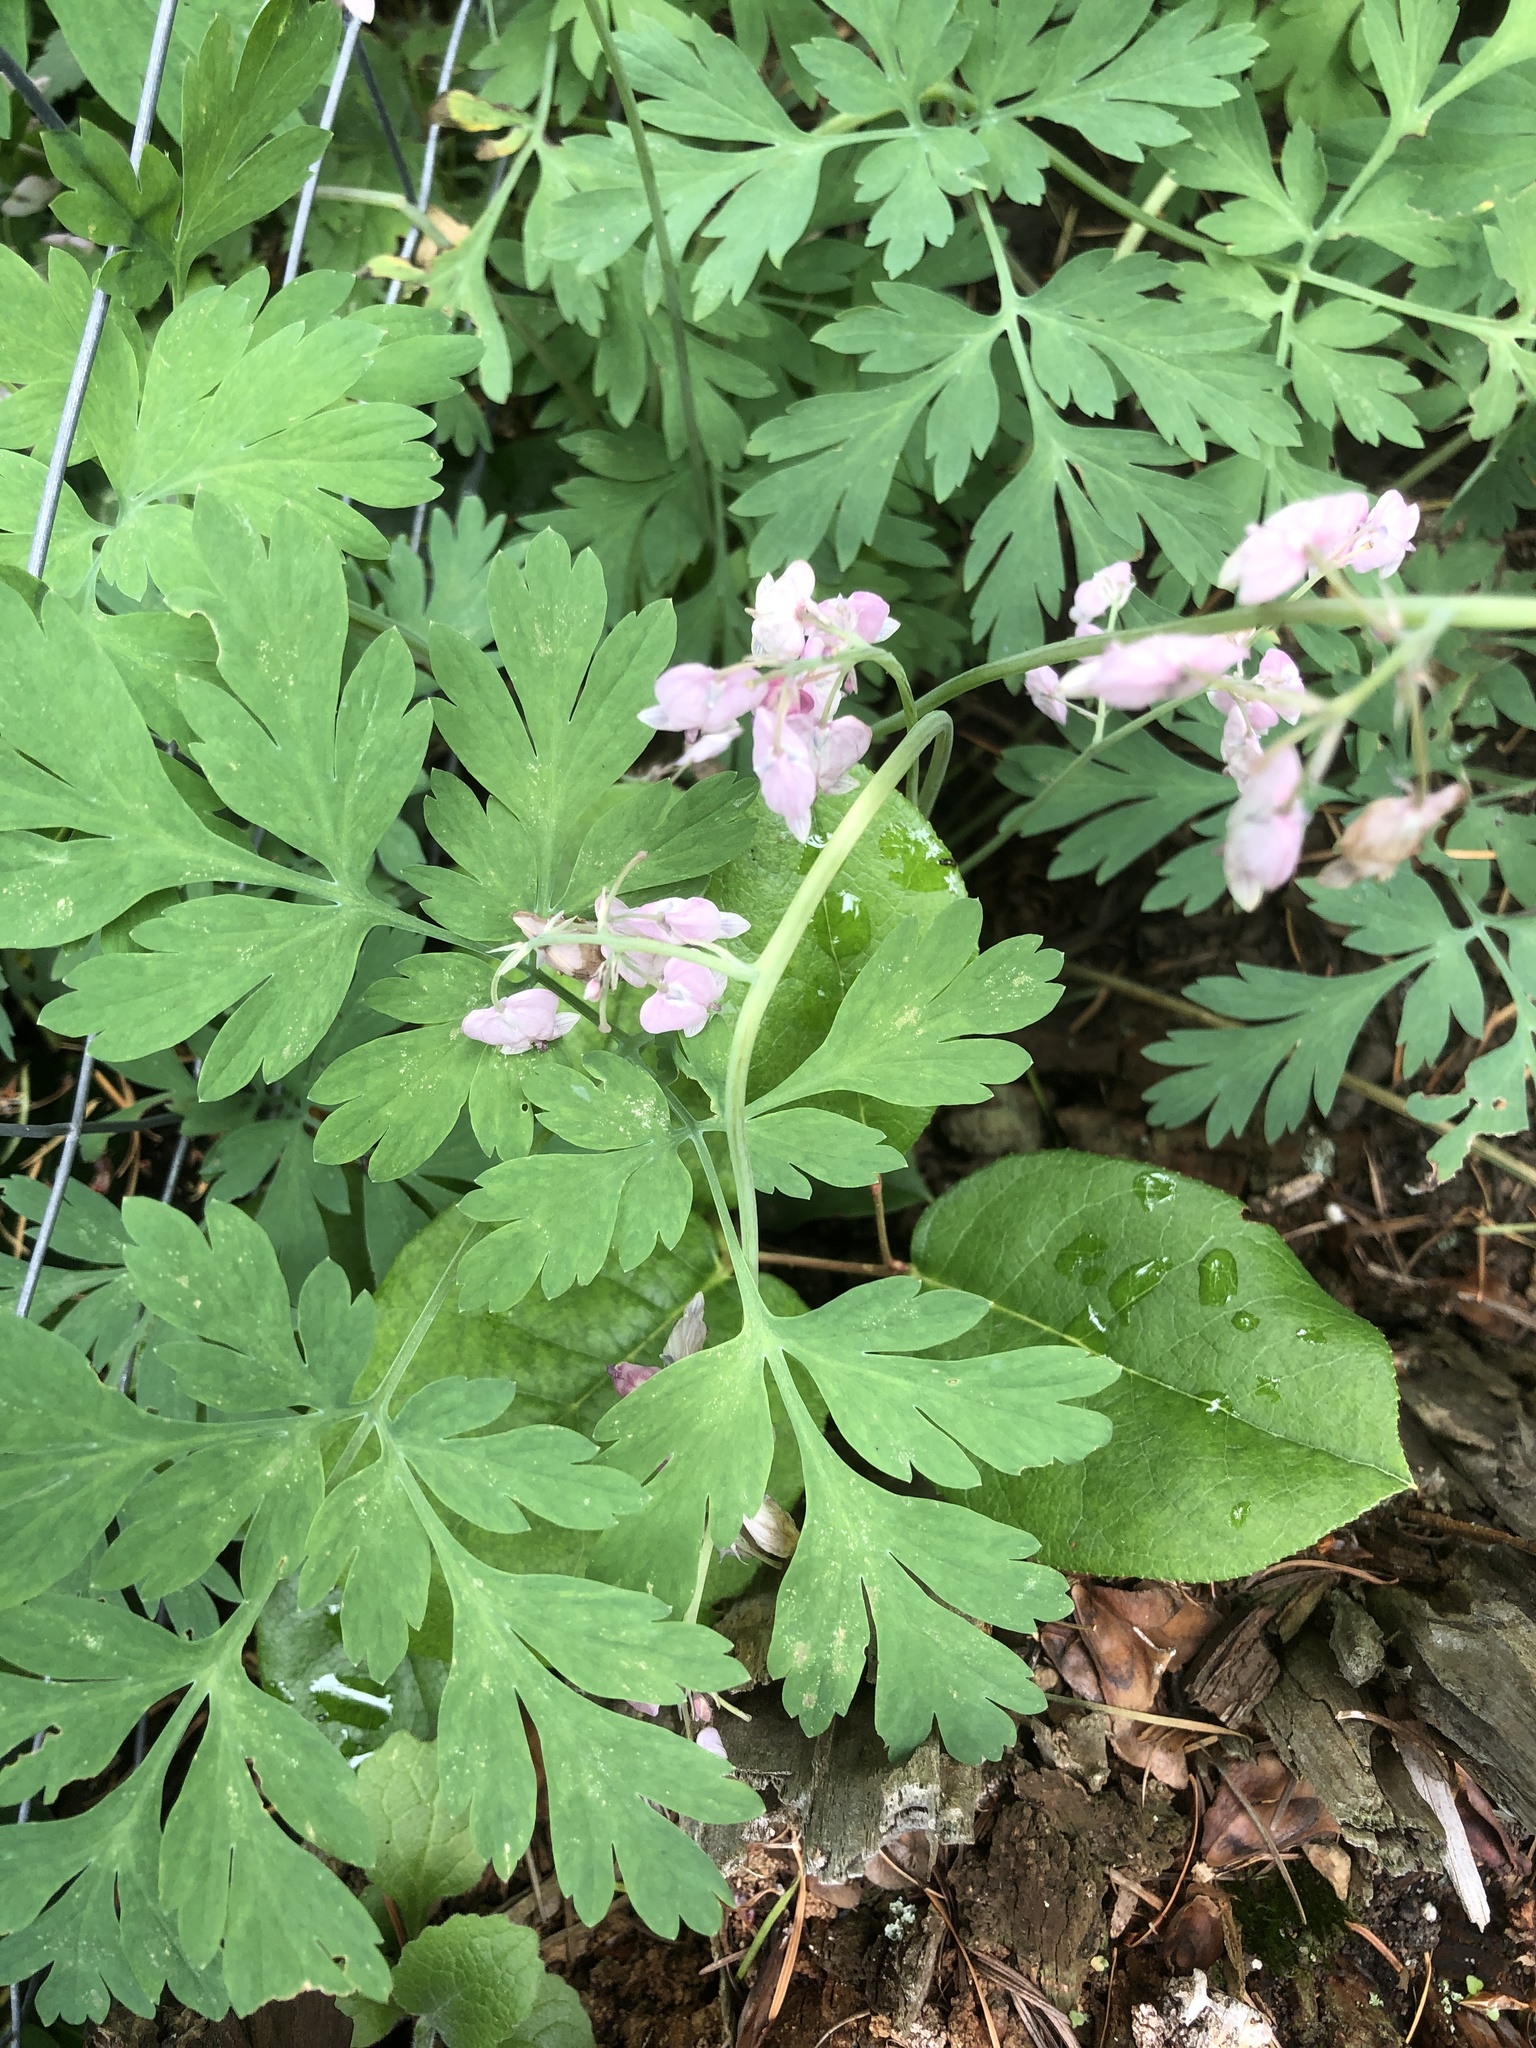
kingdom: Plantae
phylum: Tracheophyta
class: Magnoliopsida
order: Ranunculales
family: Papaveraceae
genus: Dicentra
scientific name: Dicentra formosa
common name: Bleeding-heart
